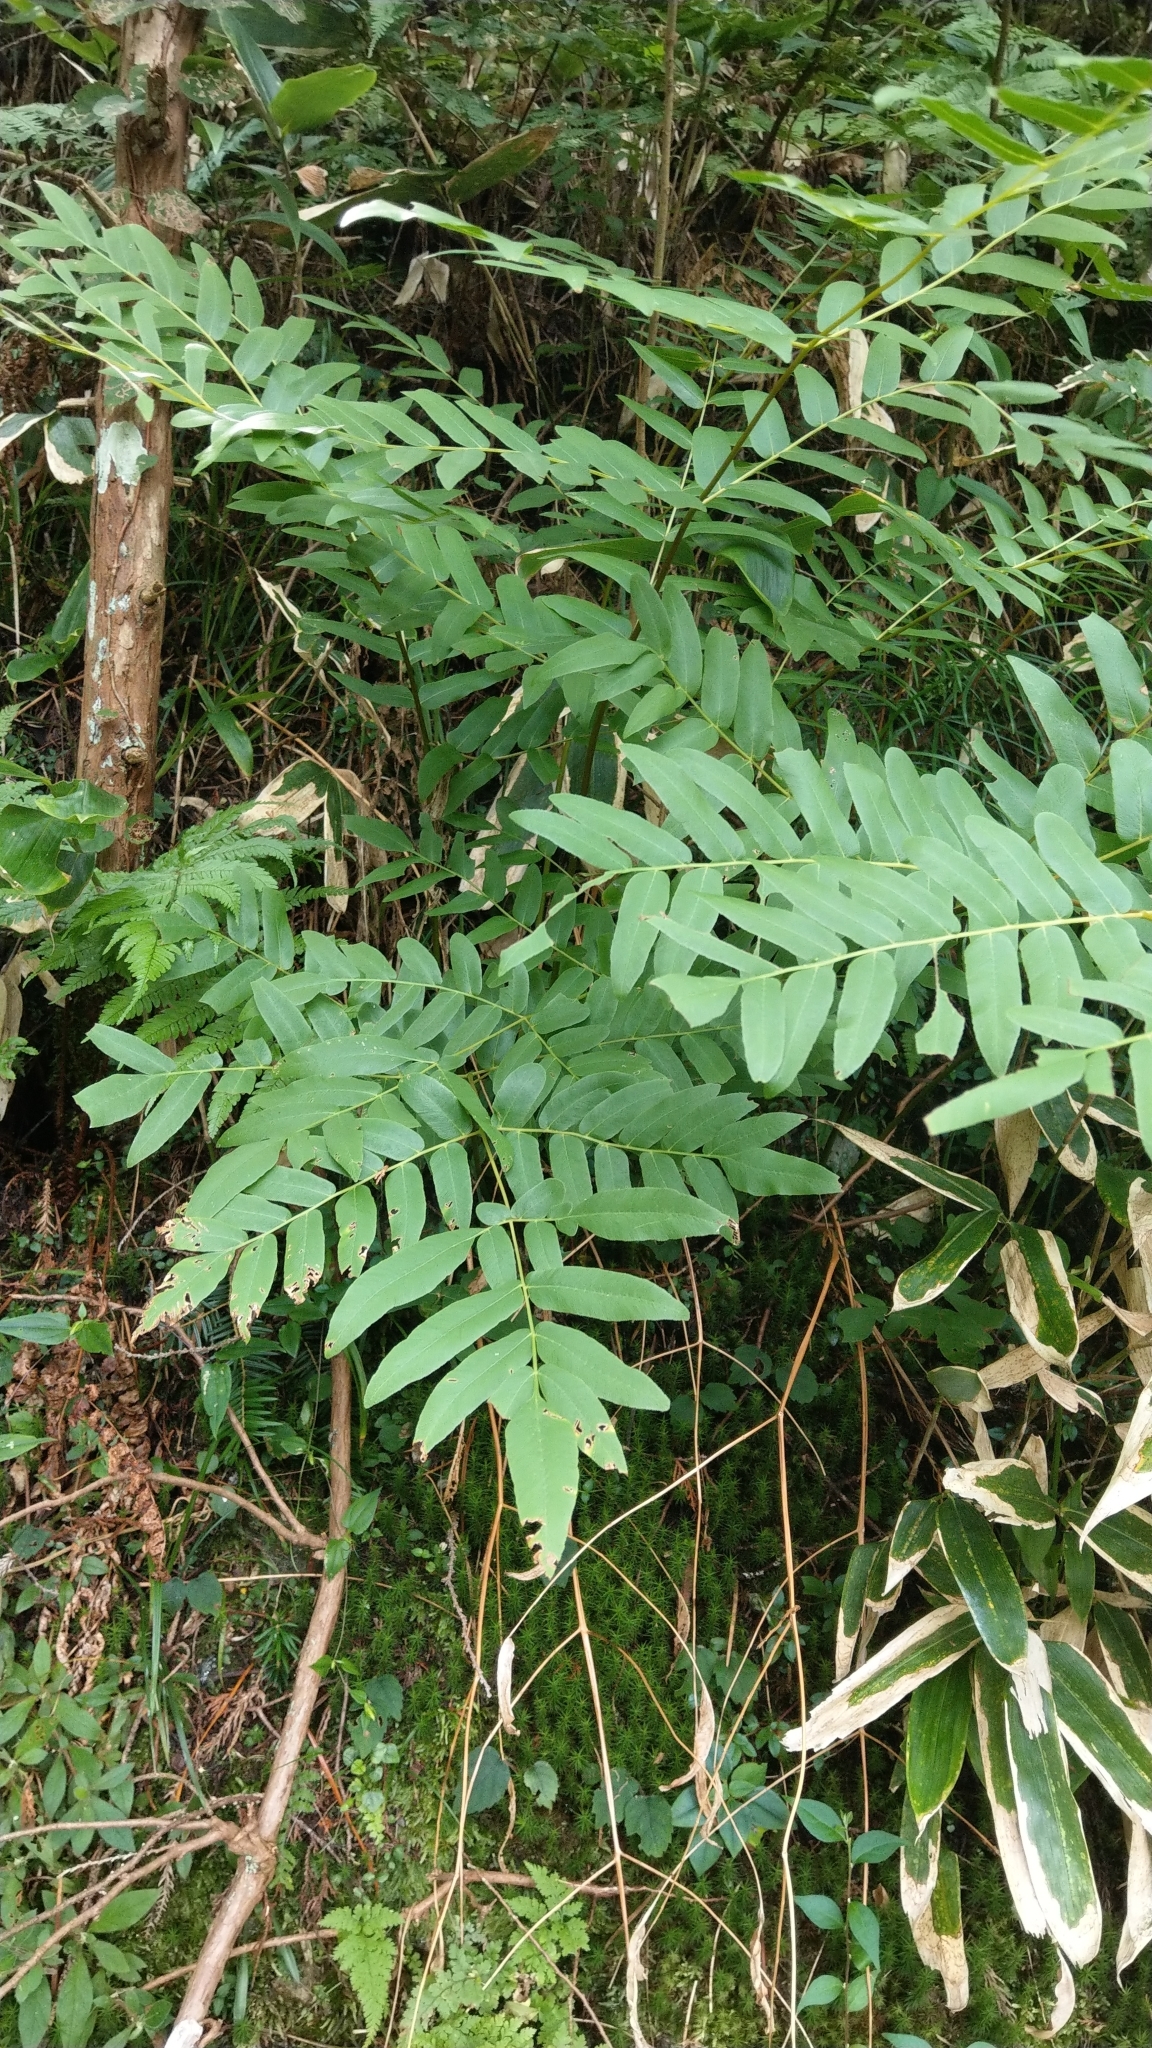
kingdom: Plantae
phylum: Tracheophyta
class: Polypodiopsida
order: Osmundales
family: Osmundaceae
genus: Osmunda
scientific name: Osmunda japonica
